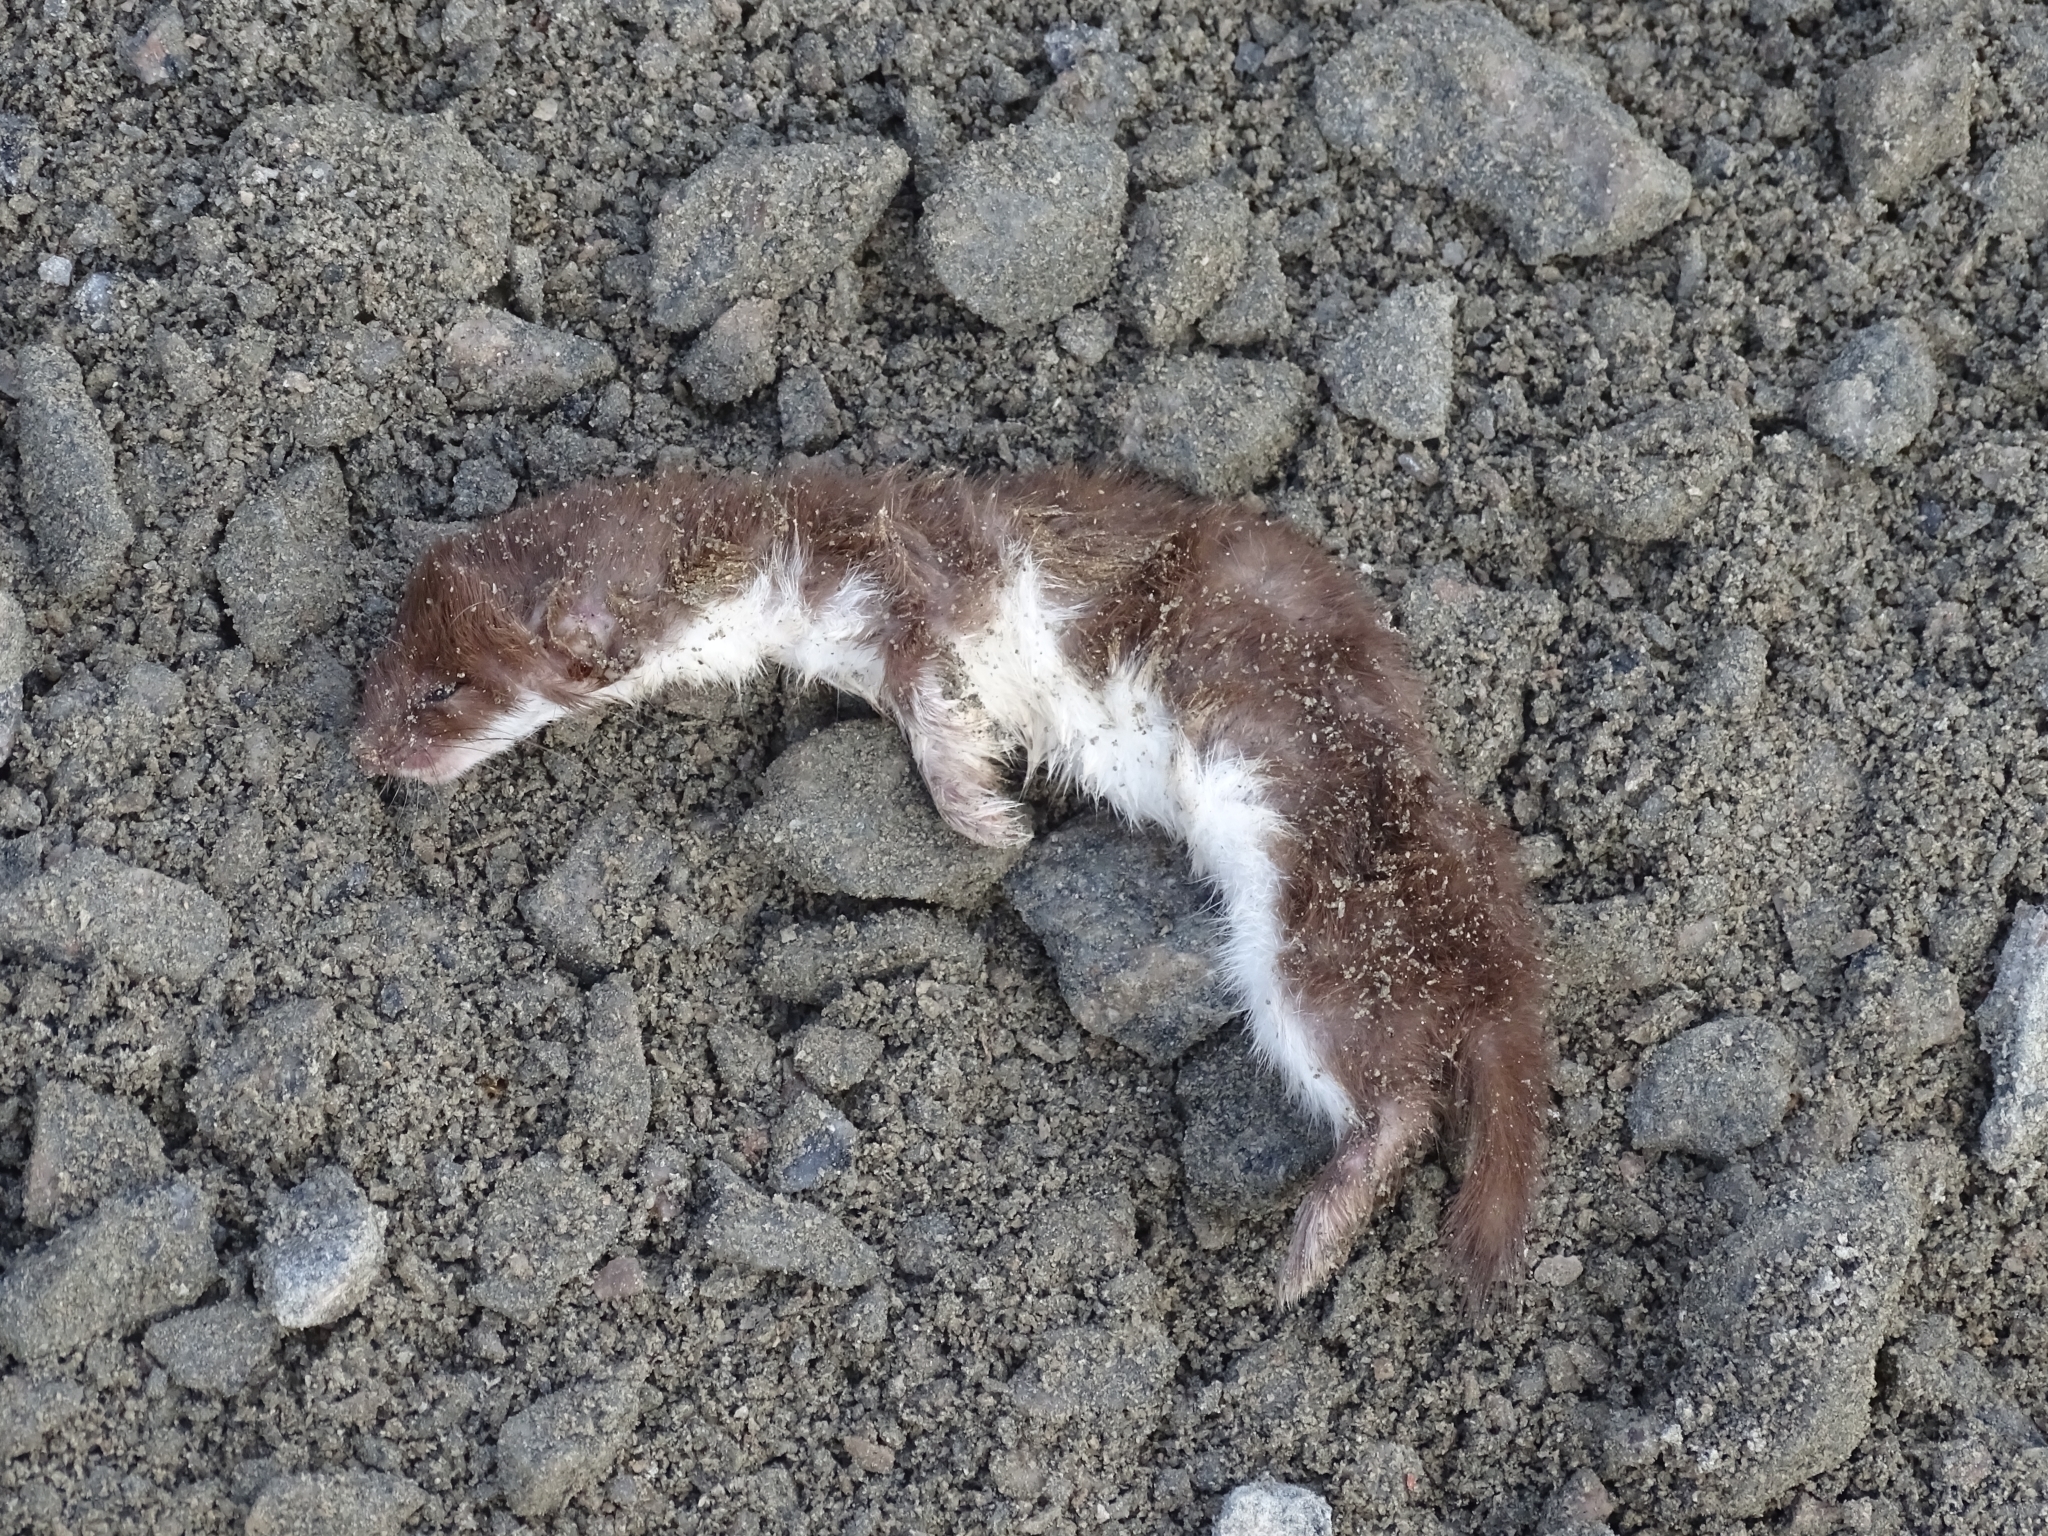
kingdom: Animalia
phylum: Chordata
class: Mammalia
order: Carnivora
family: Mustelidae
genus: Mustela
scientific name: Mustela nivalis
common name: Least weasel
